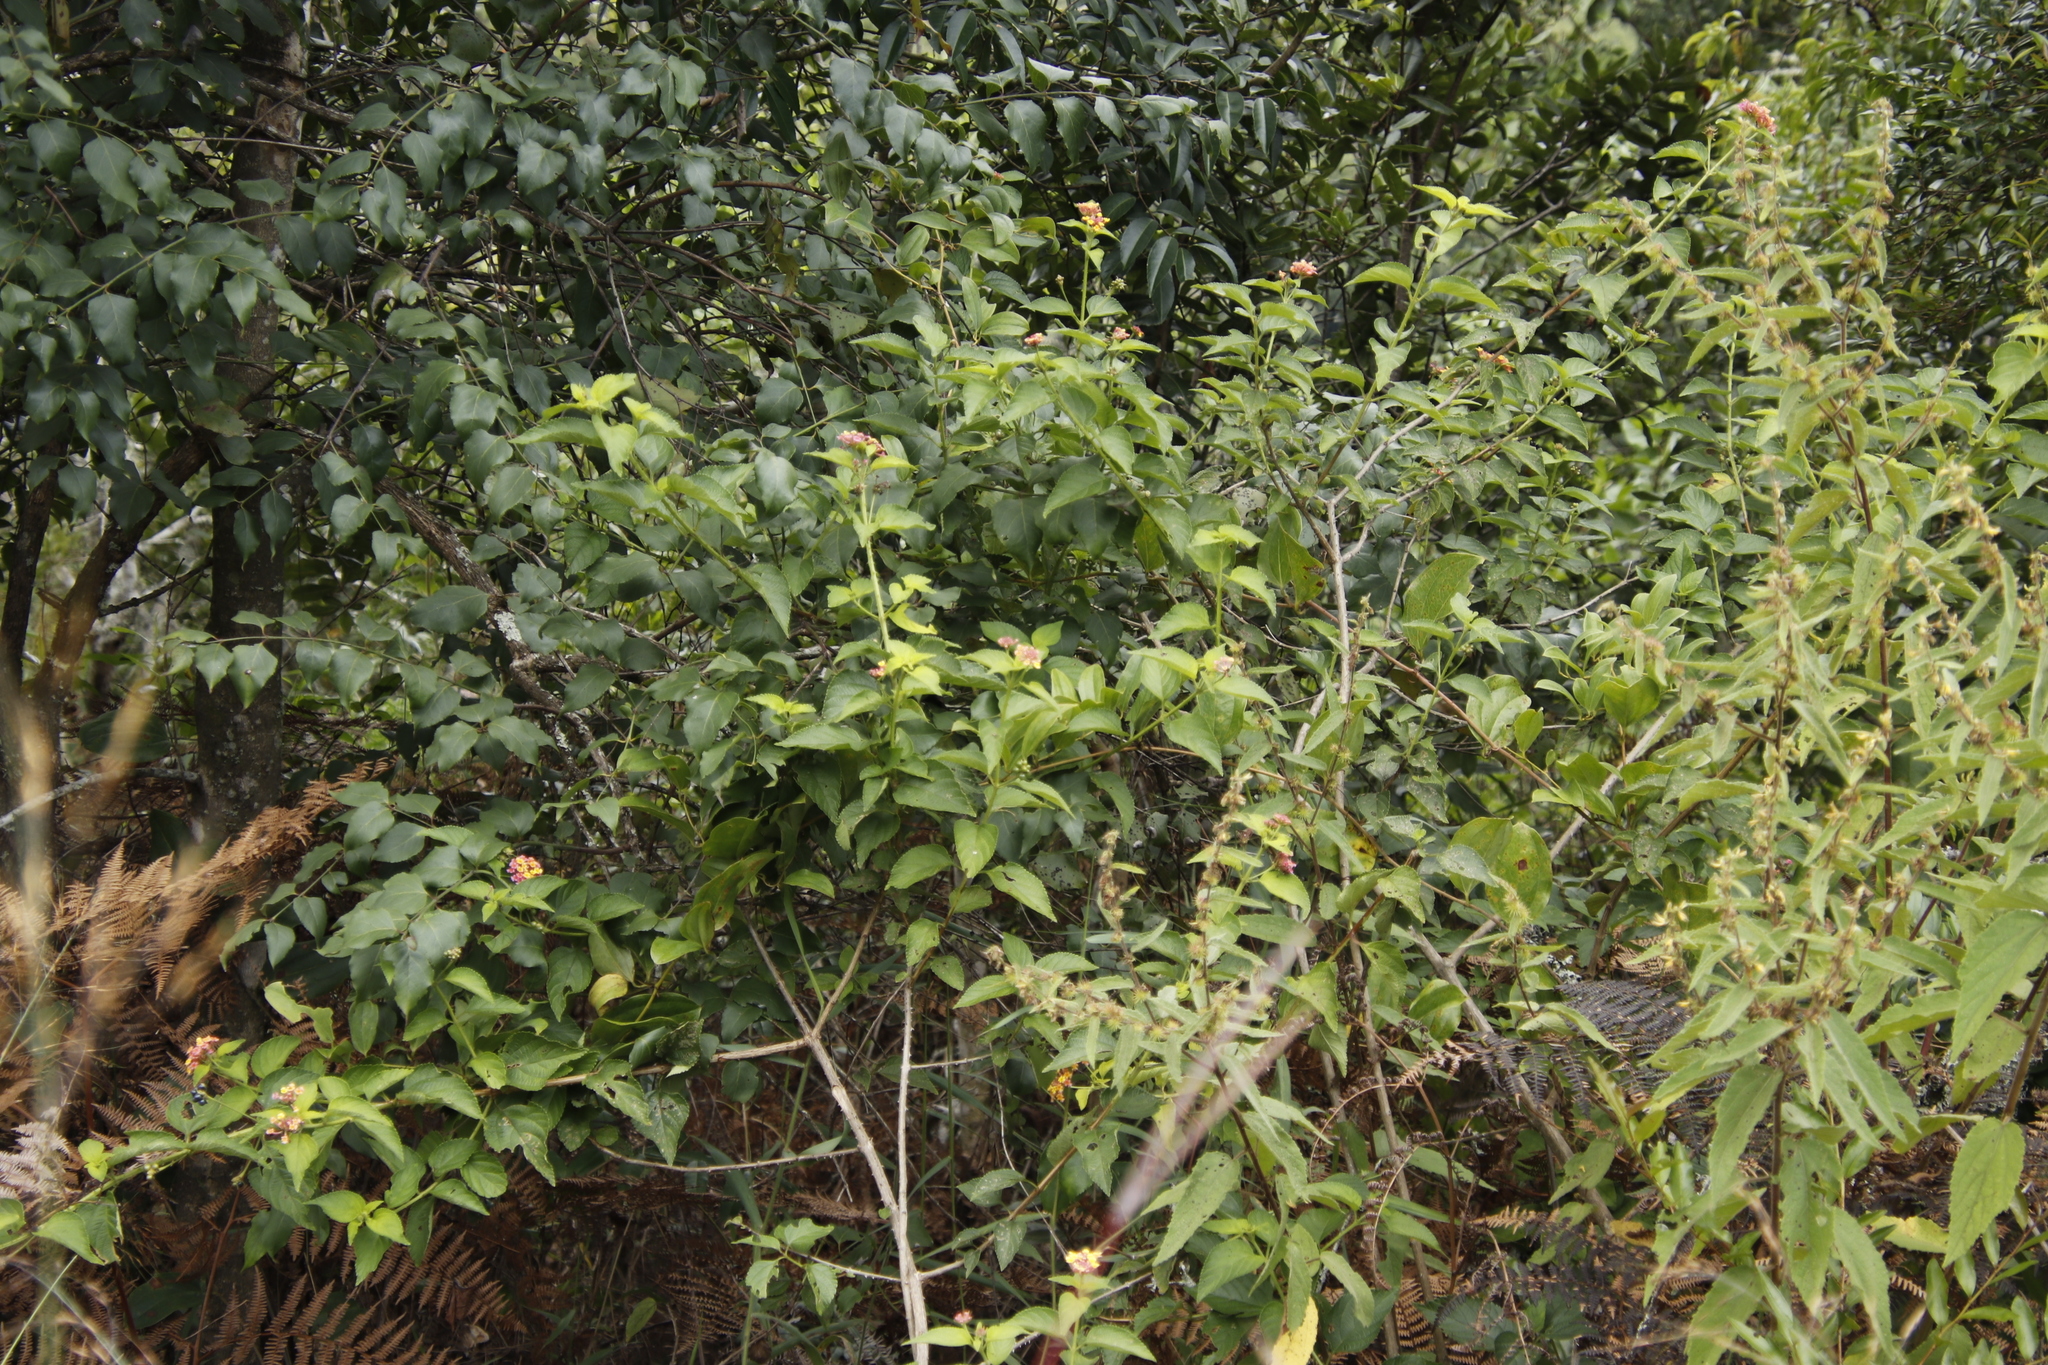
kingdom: Plantae
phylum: Tracheophyta
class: Magnoliopsida
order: Lamiales
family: Verbenaceae
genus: Lantana
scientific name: Lantana camara
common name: Lantana
